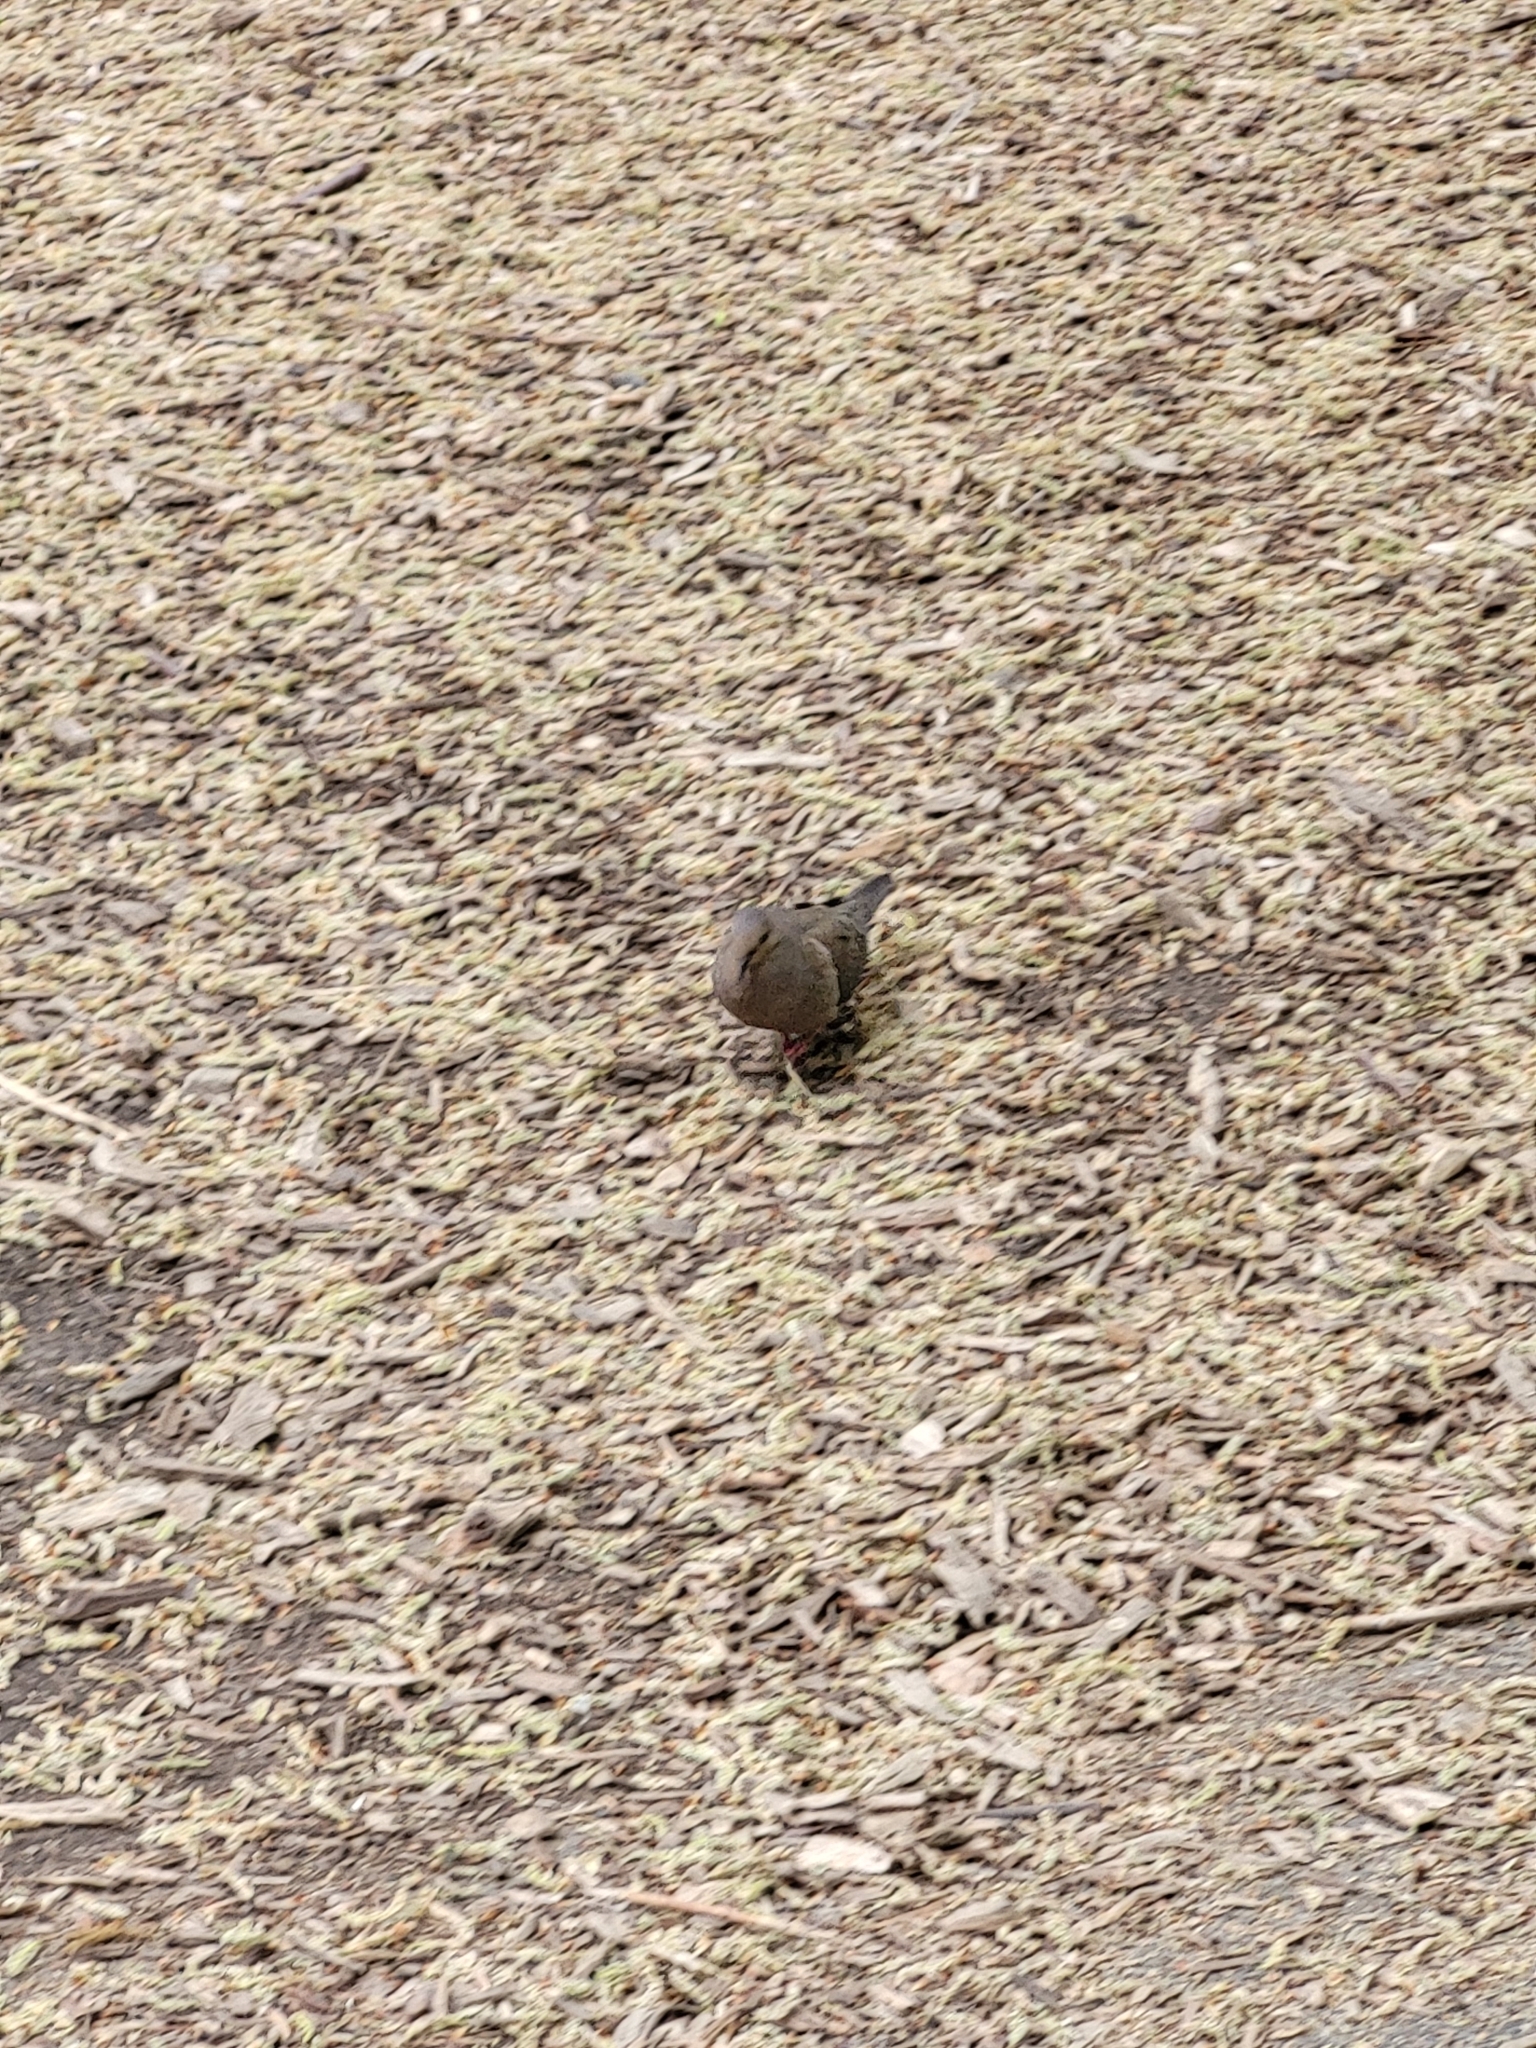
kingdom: Animalia
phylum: Chordata
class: Aves
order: Columbiformes
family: Columbidae
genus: Zenaida
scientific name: Zenaida macroura
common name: Mourning dove
